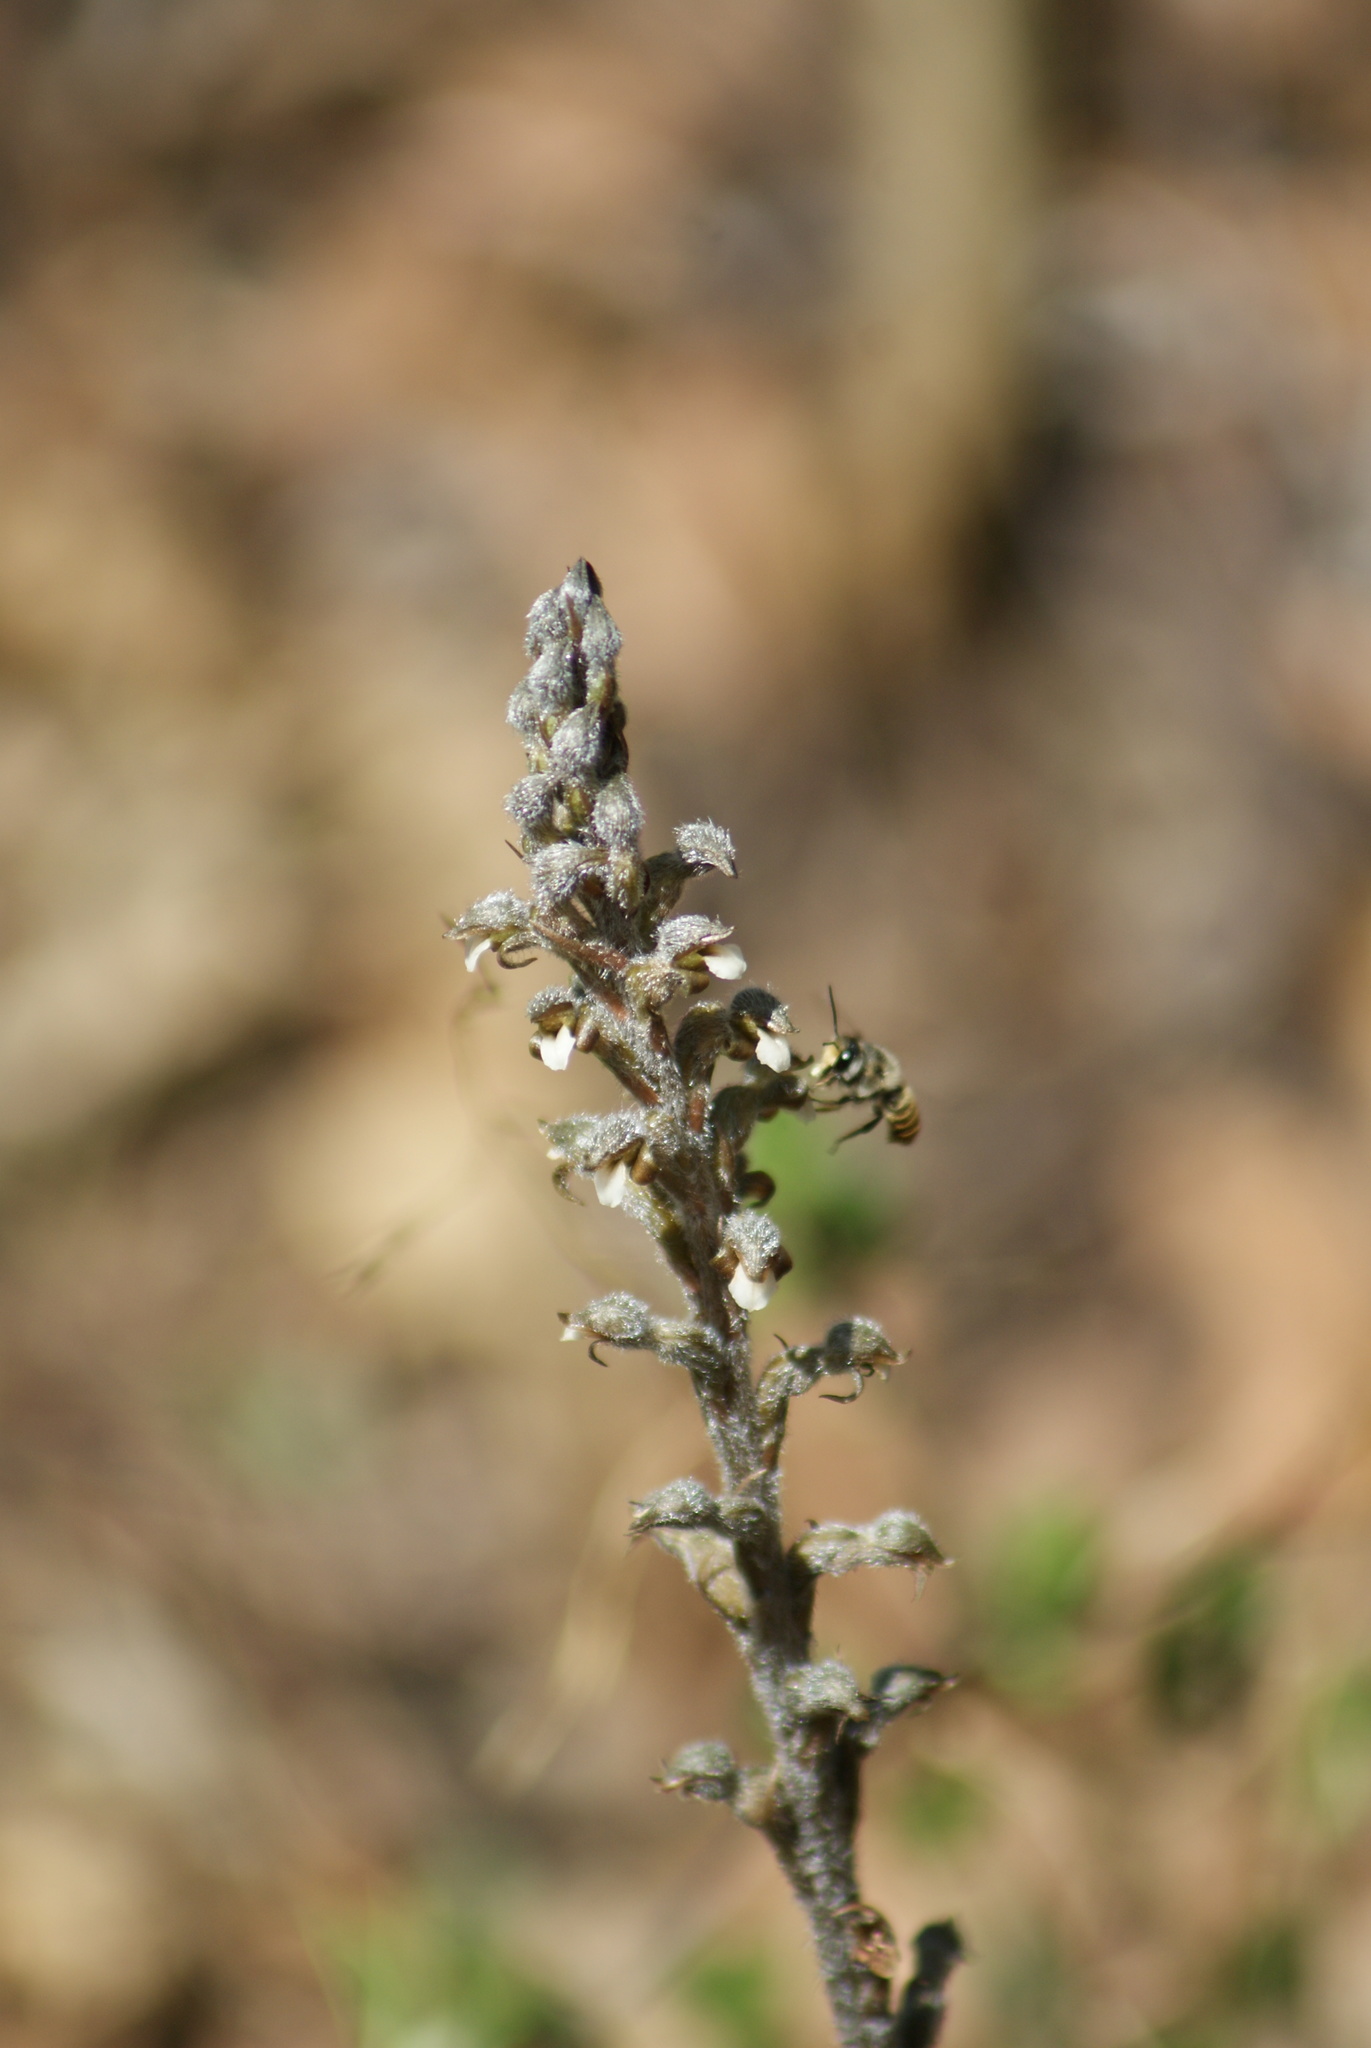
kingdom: Plantae
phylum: Tracheophyta
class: Liliopsida
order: Asparagales
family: Orchidaceae
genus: Sarcoglottis
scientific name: Sarcoglottis schaffneri
